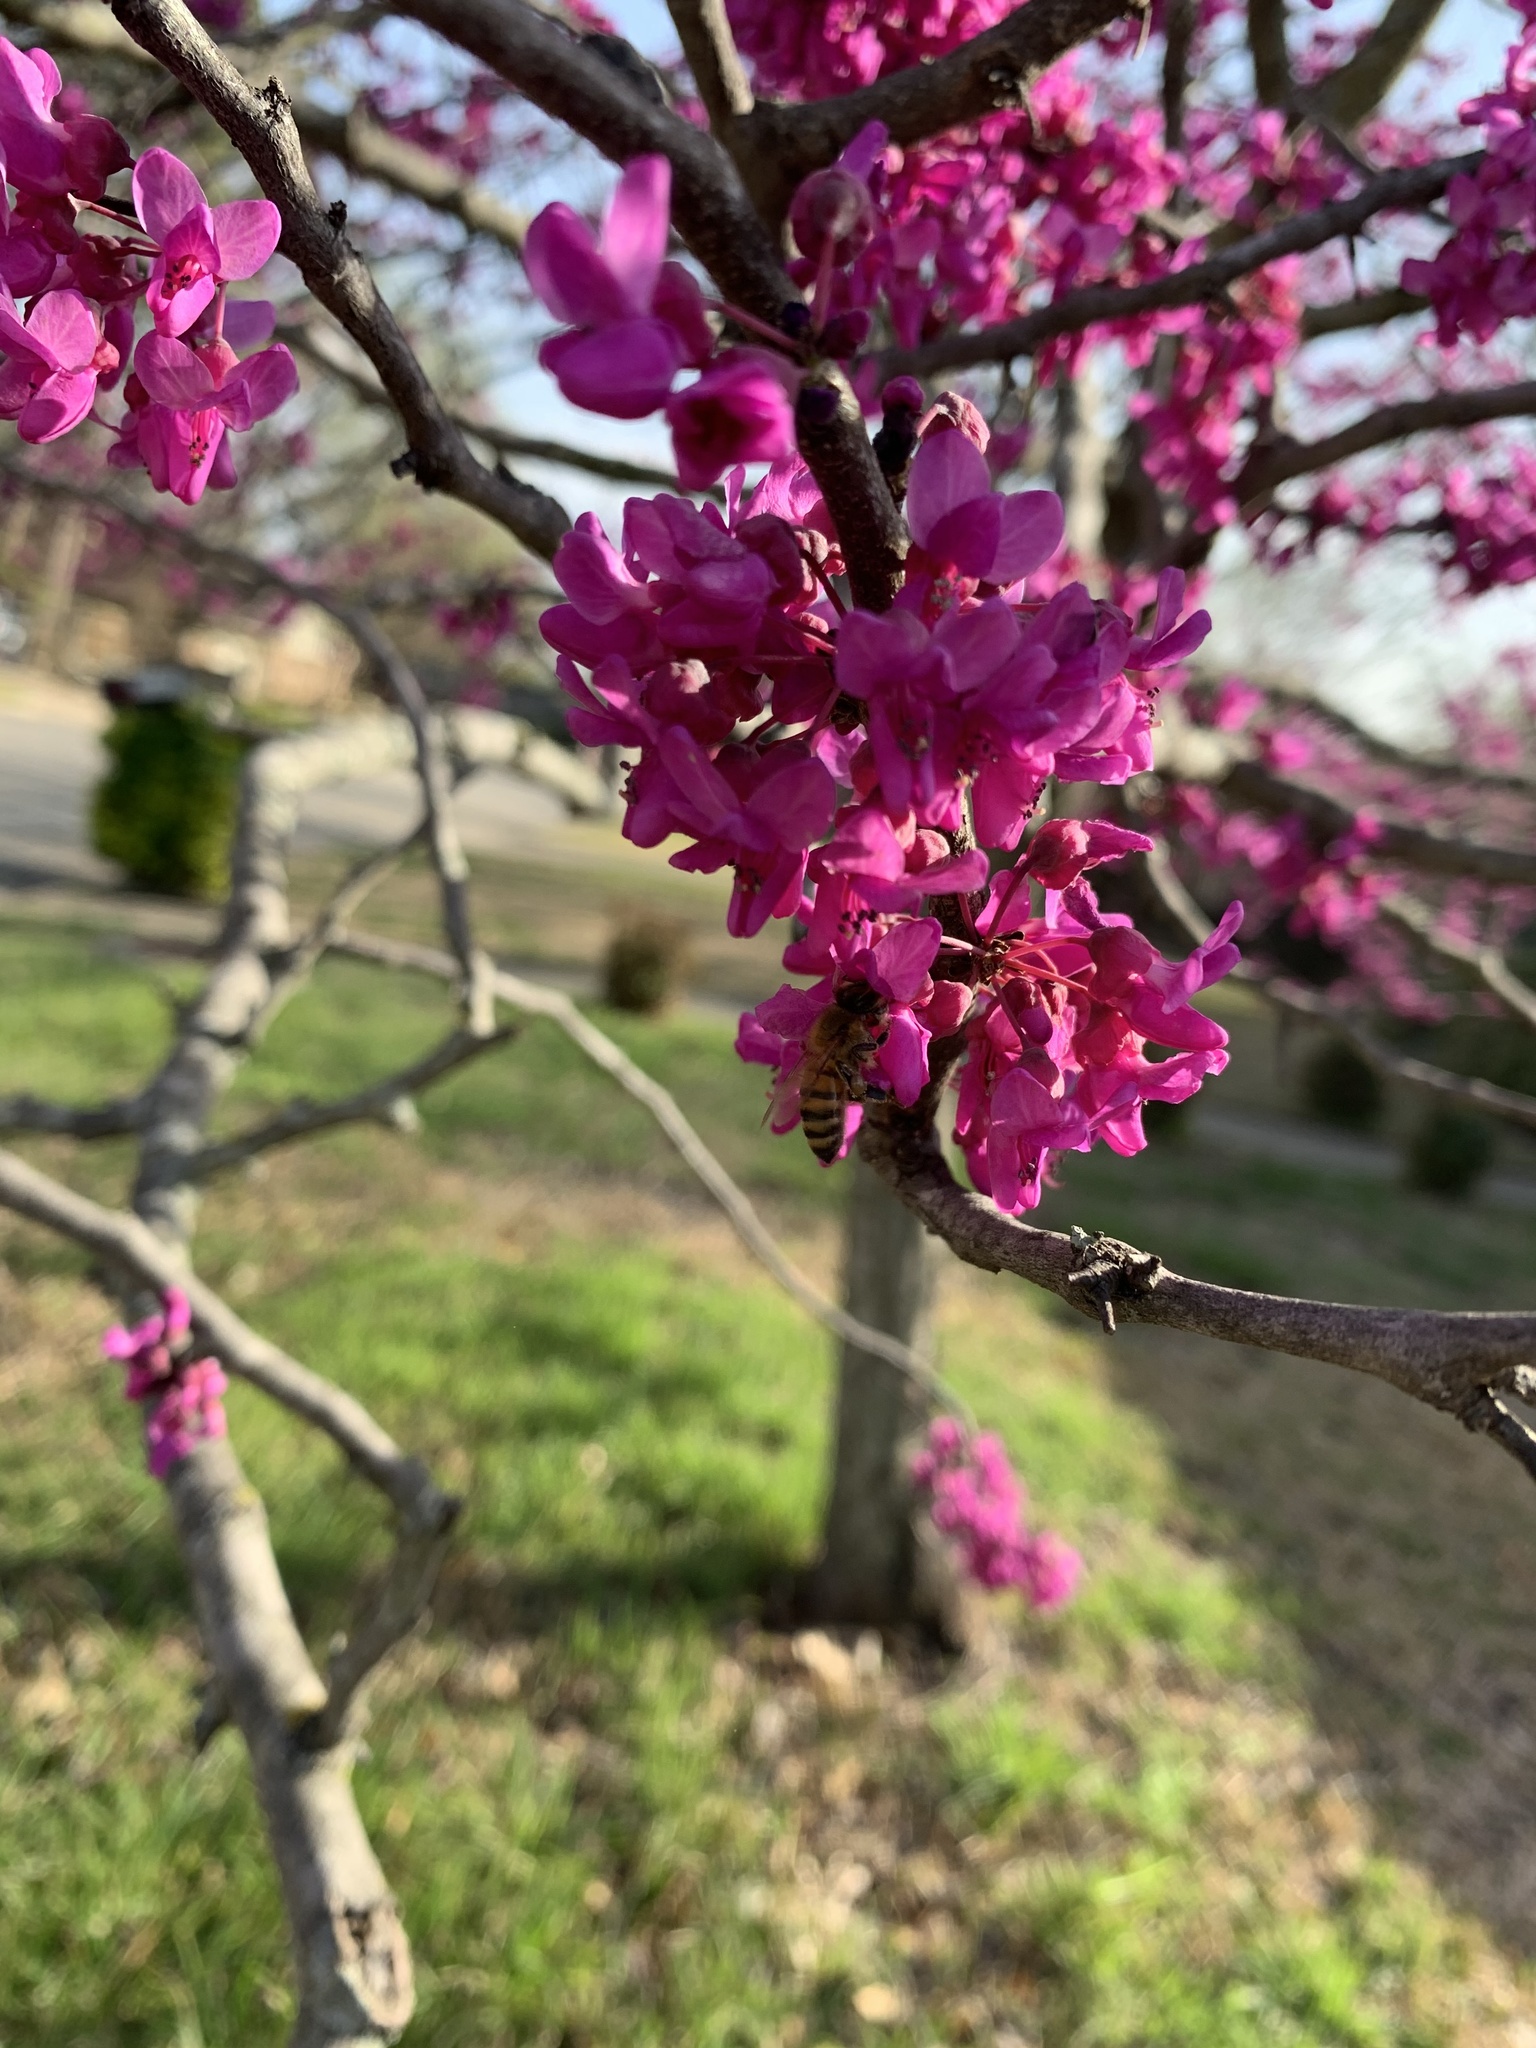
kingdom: Animalia
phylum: Arthropoda
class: Insecta
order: Hymenoptera
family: Apidae
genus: Apis
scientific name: Apis mellifera
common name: Honey bee
